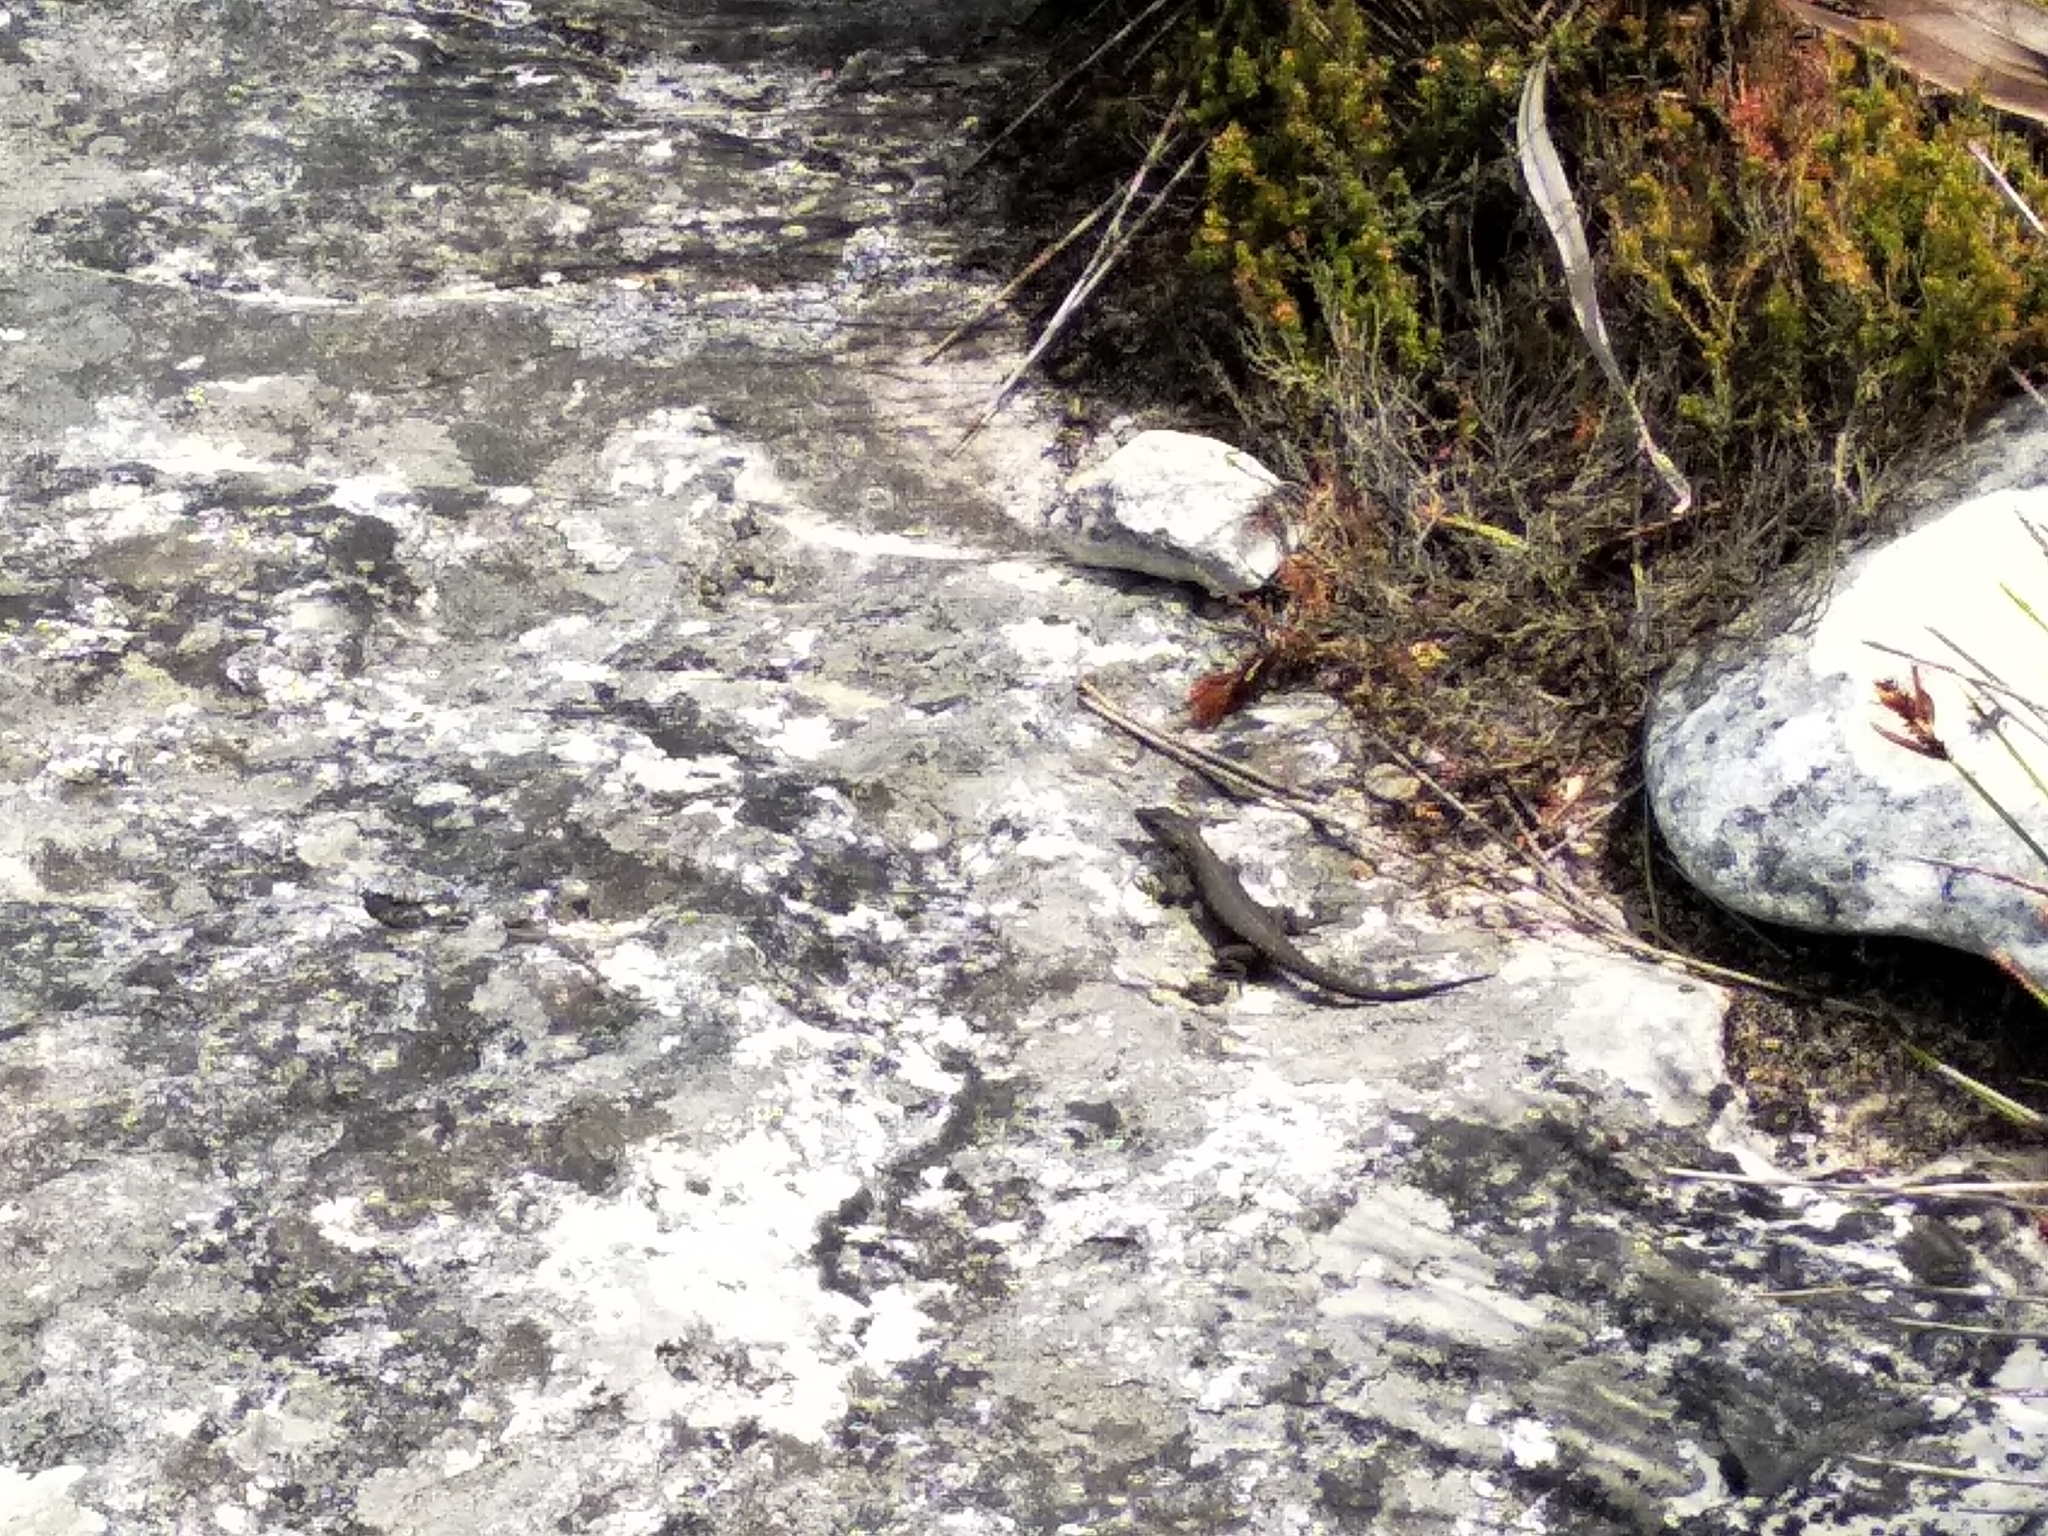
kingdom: Animalia
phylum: Chordata
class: Squamata
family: Cordylidae
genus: Cordylus
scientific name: Cordylus niger
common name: Black girdled lizard
